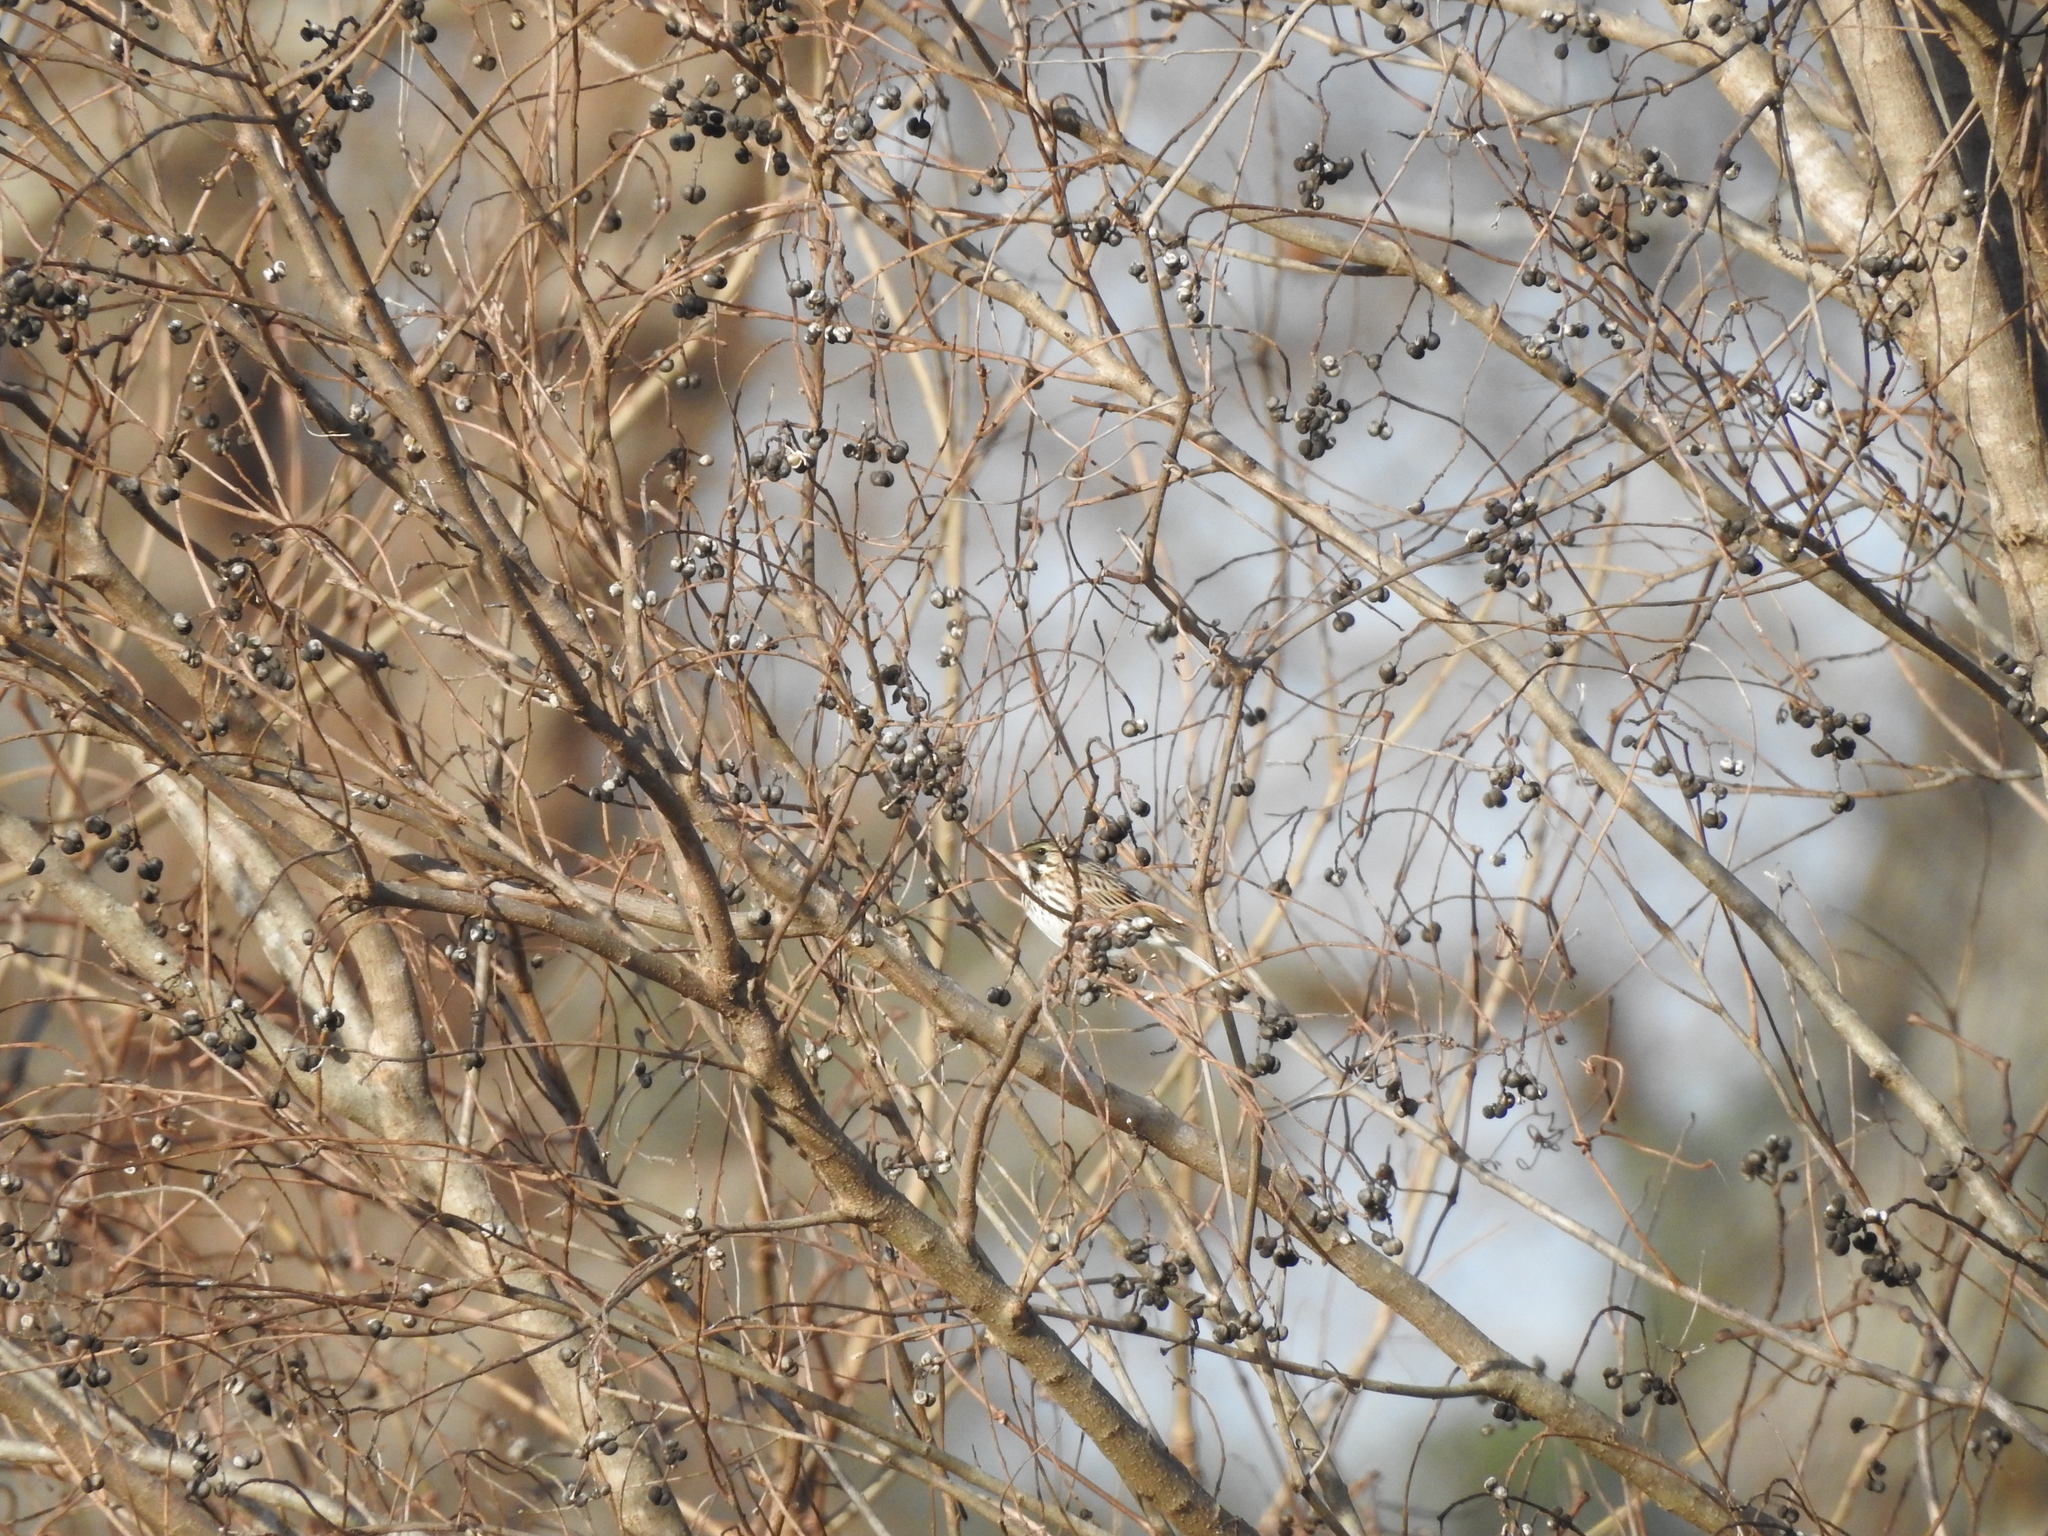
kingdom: Animalia
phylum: Chordata
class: Aves
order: Passeriformes
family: Passerellidae
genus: Passerculus
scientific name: Passerculus sandwichensis
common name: Savannah sparrow
